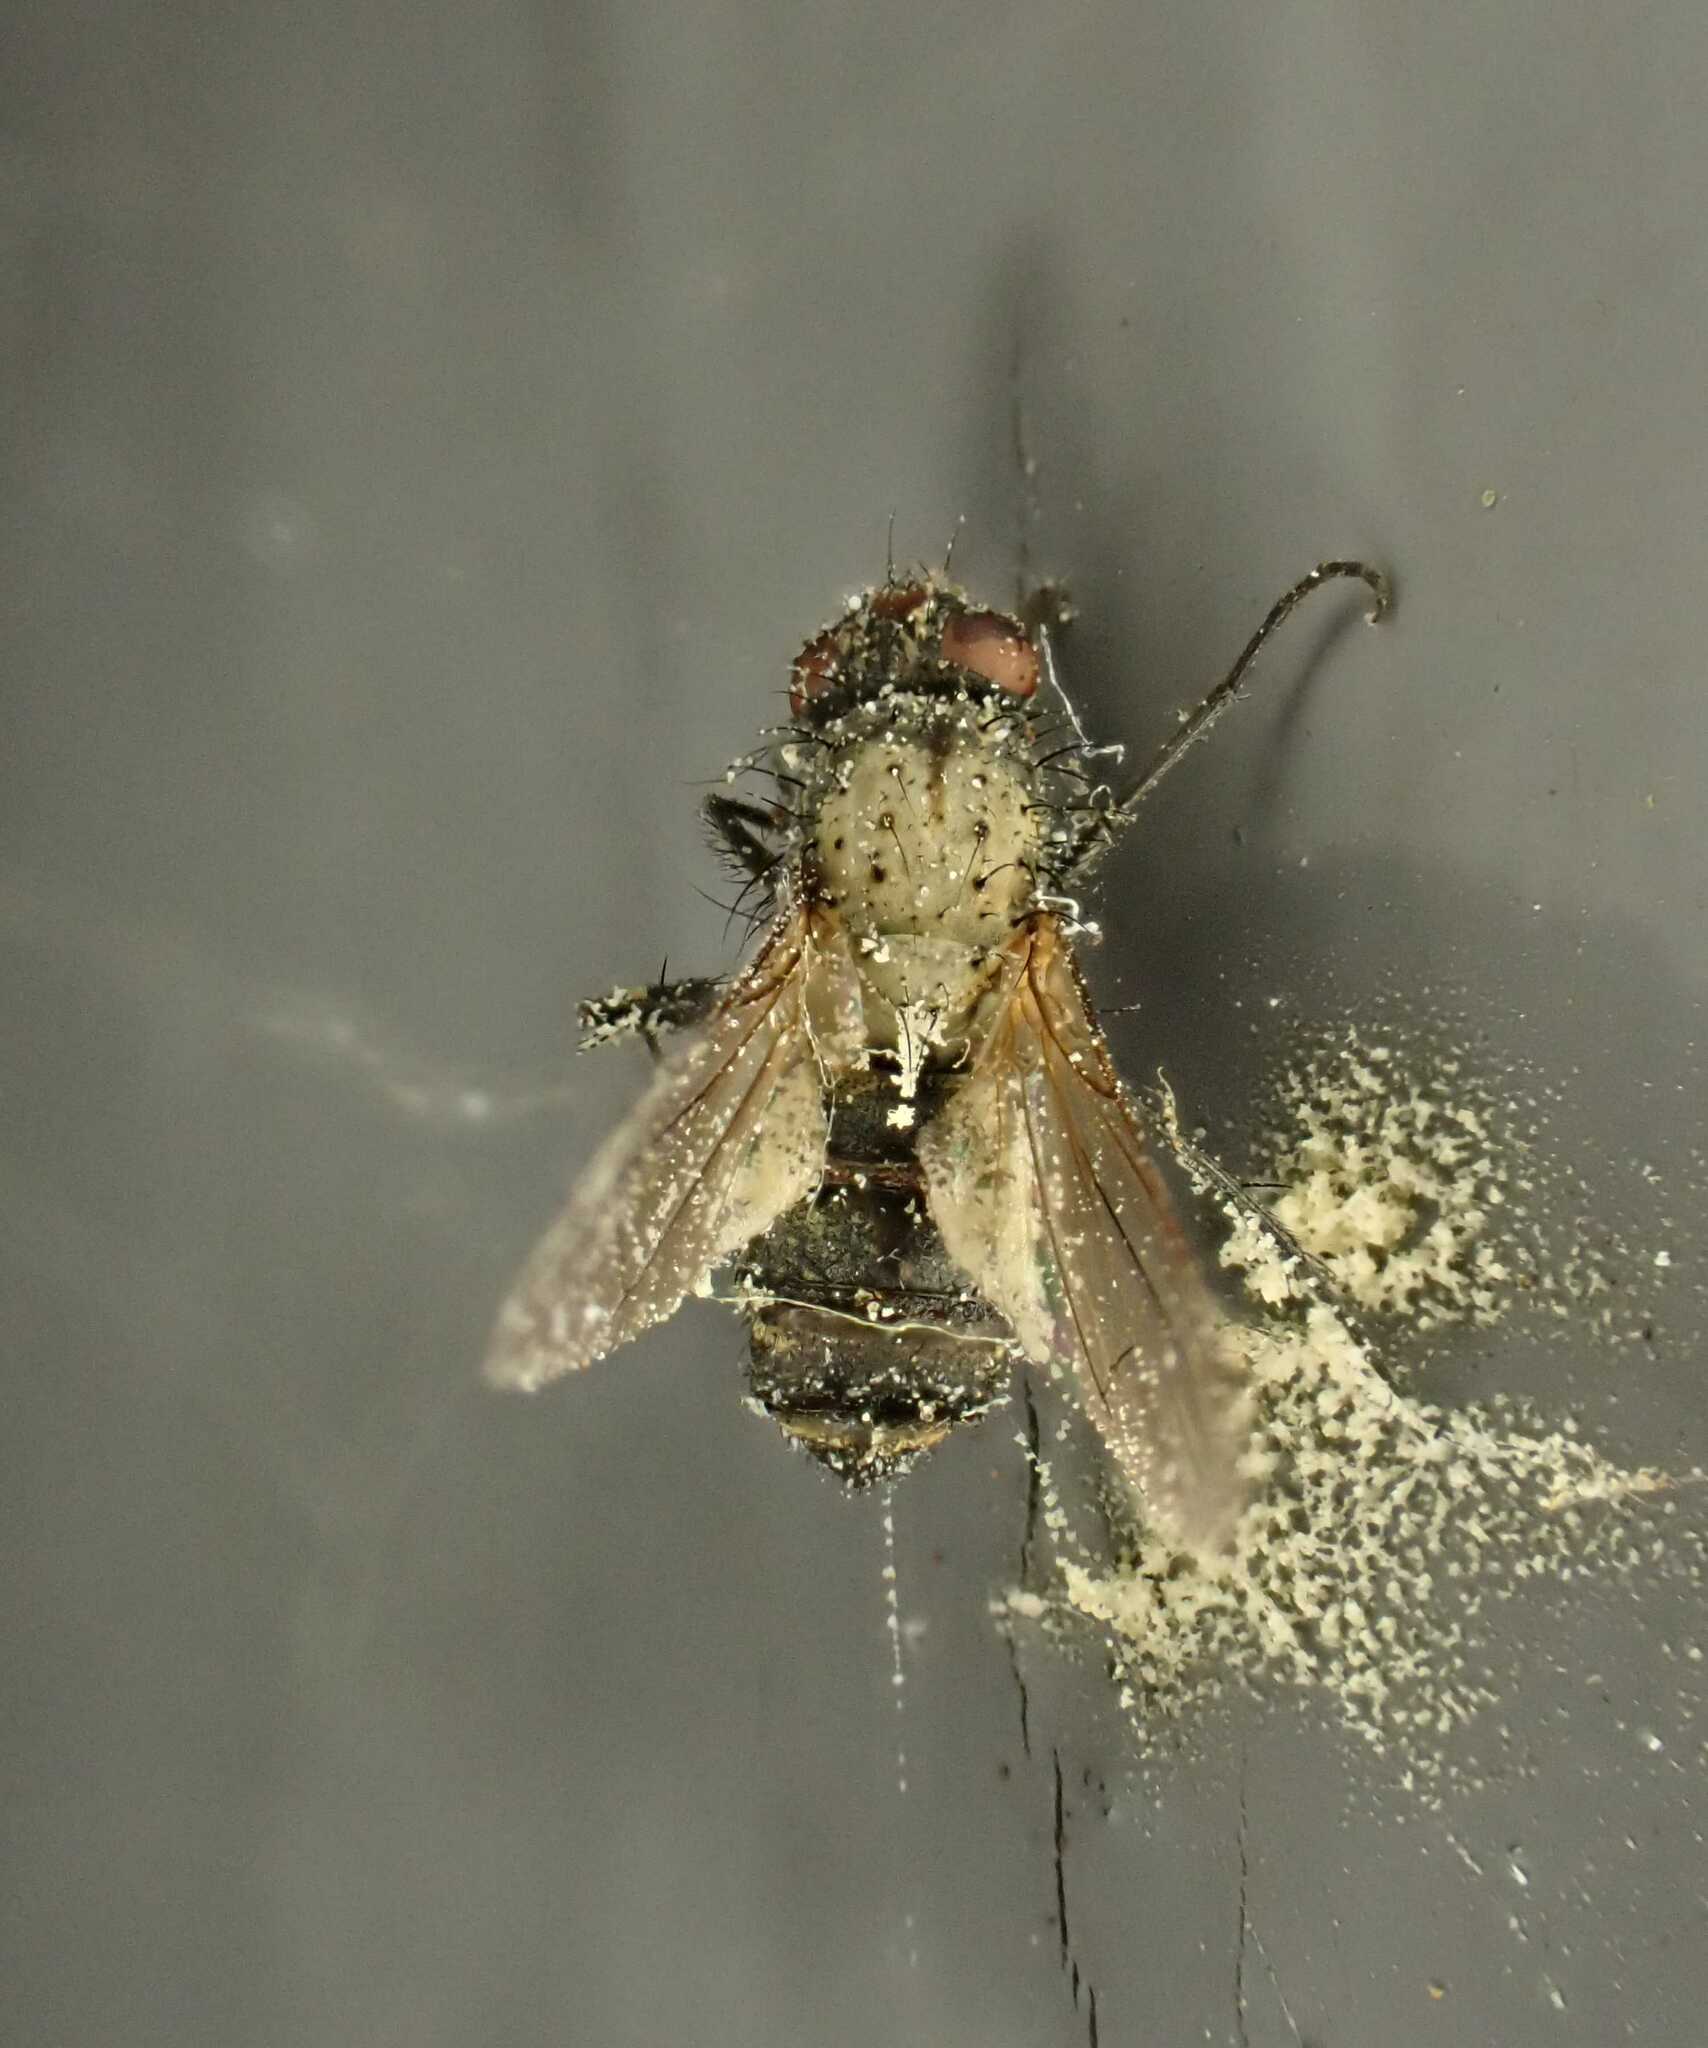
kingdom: Fungi
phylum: Entomophthoromycota
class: Entomophthoromycetes
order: Entomophthorales
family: Entomophthoraceae
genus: Entomophthora
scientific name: Entomophthora
